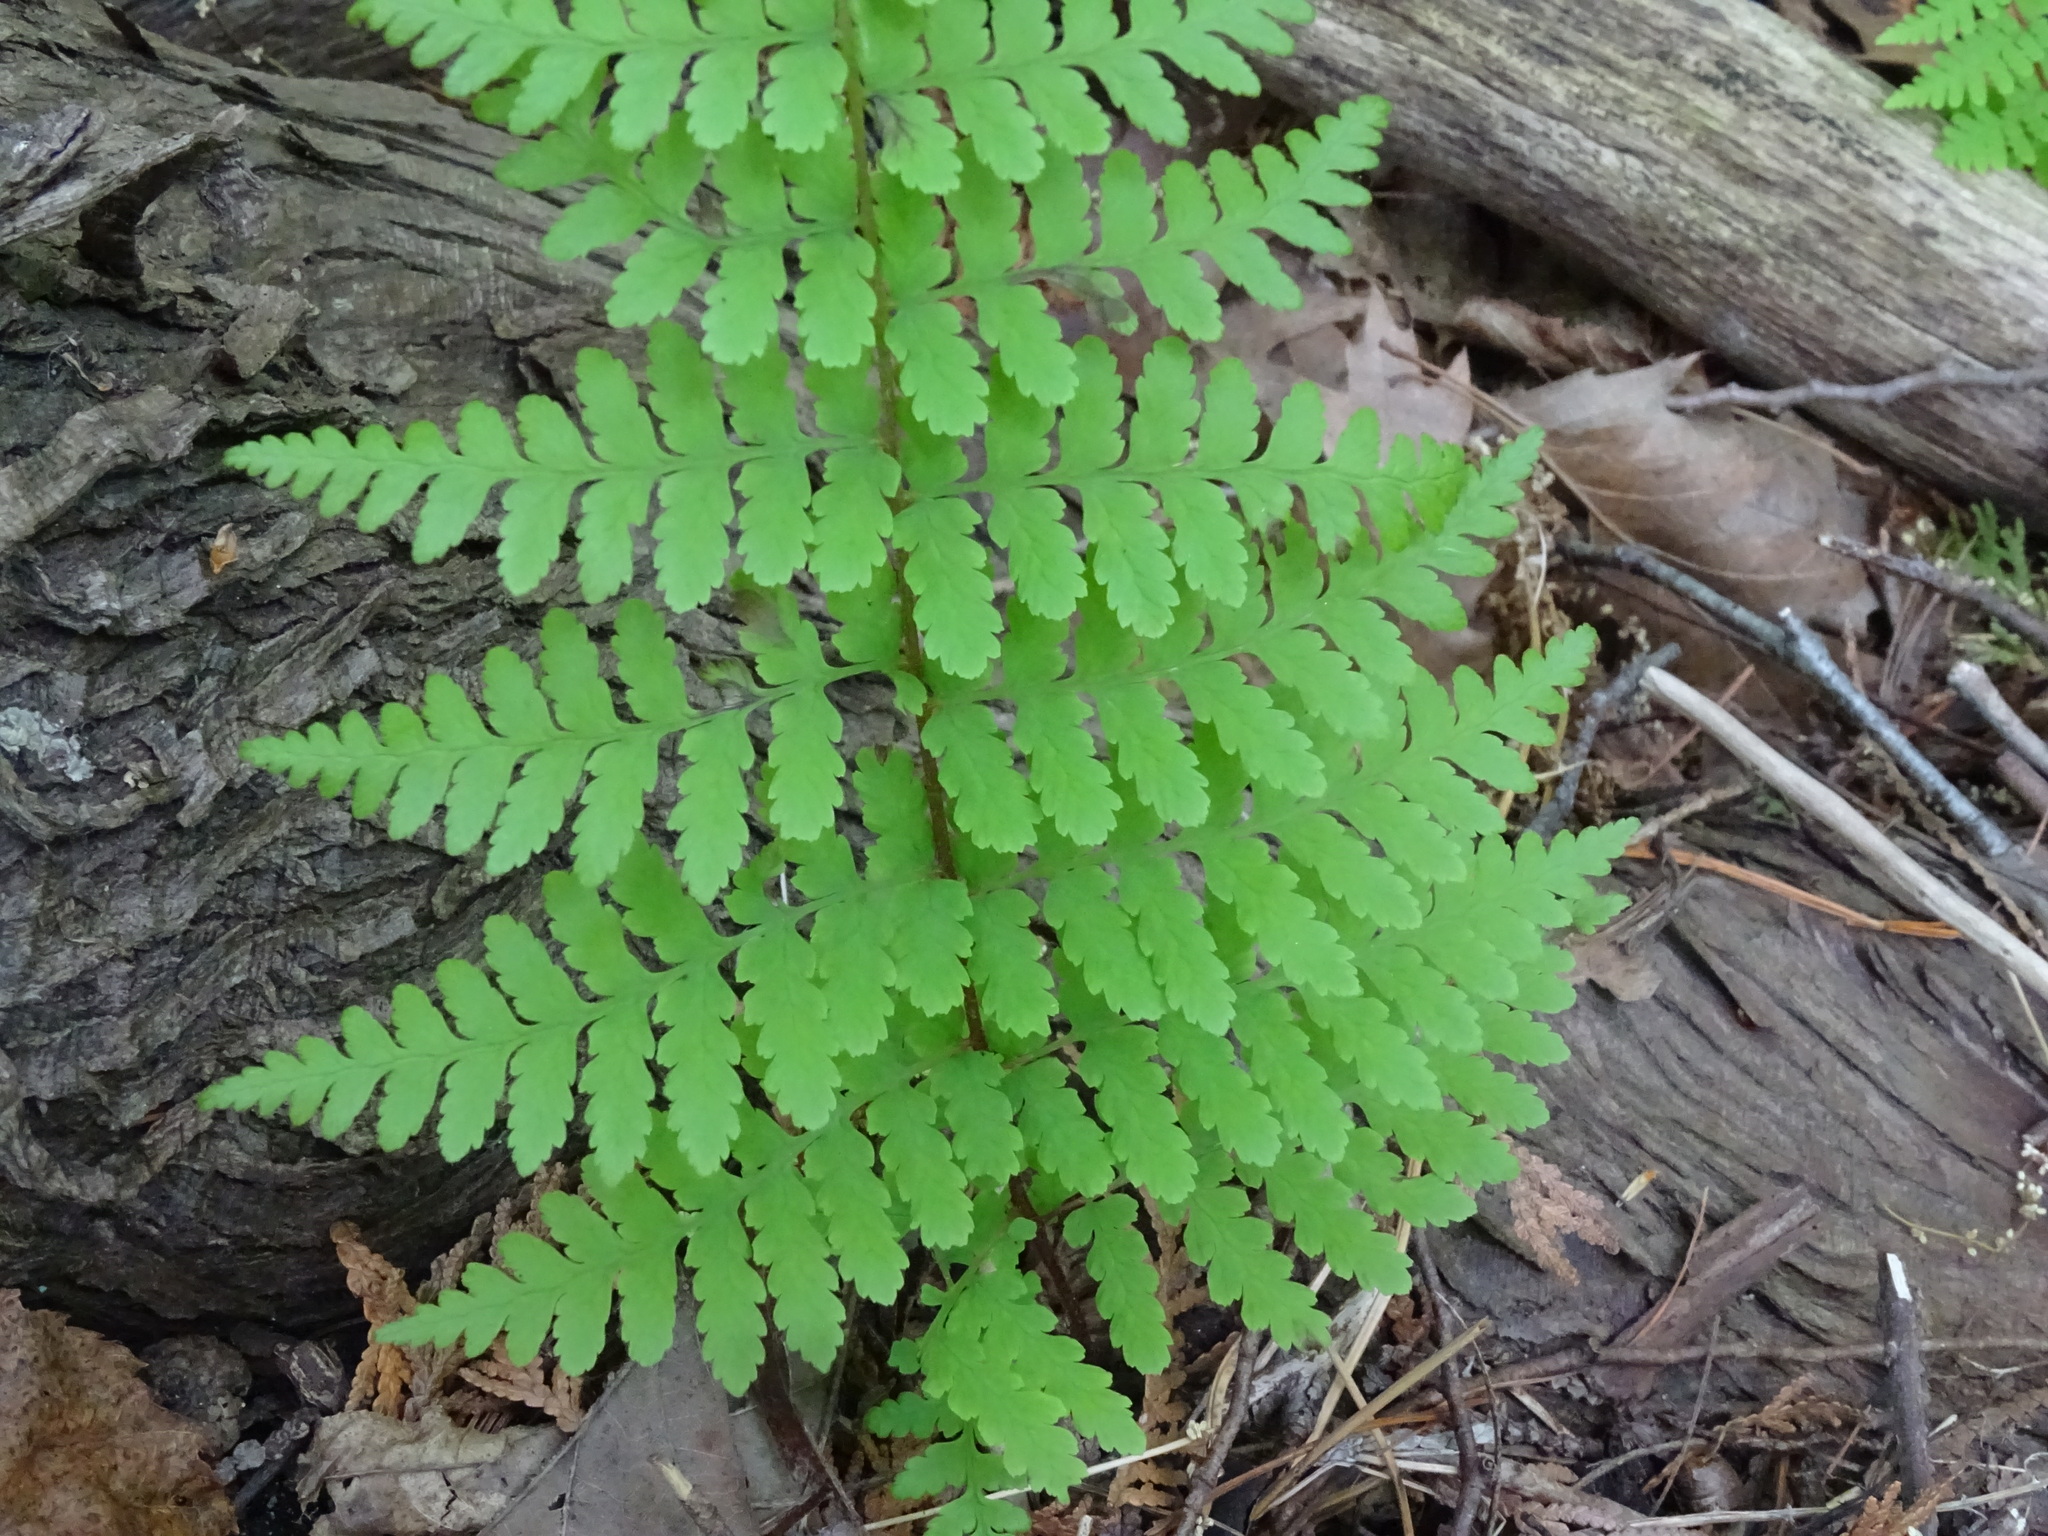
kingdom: Plantae
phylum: Tracheophyta
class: Polypodiopsida
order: Polypodiales
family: Cystopteridaceae
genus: Cystopteris
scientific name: Cystopteris bulbifera
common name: Bulblet bladder fern
